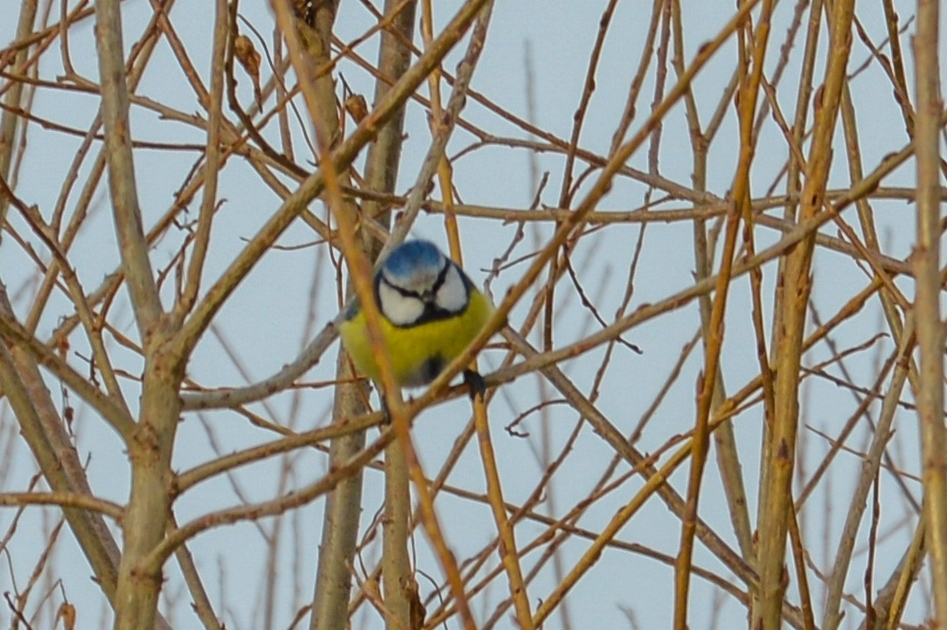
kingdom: Animalia
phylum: Chordata
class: Aves
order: Passeriformes
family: Paridae
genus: Cyanistes
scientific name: Cyanistes caeruleus
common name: Eurasian blue tit
